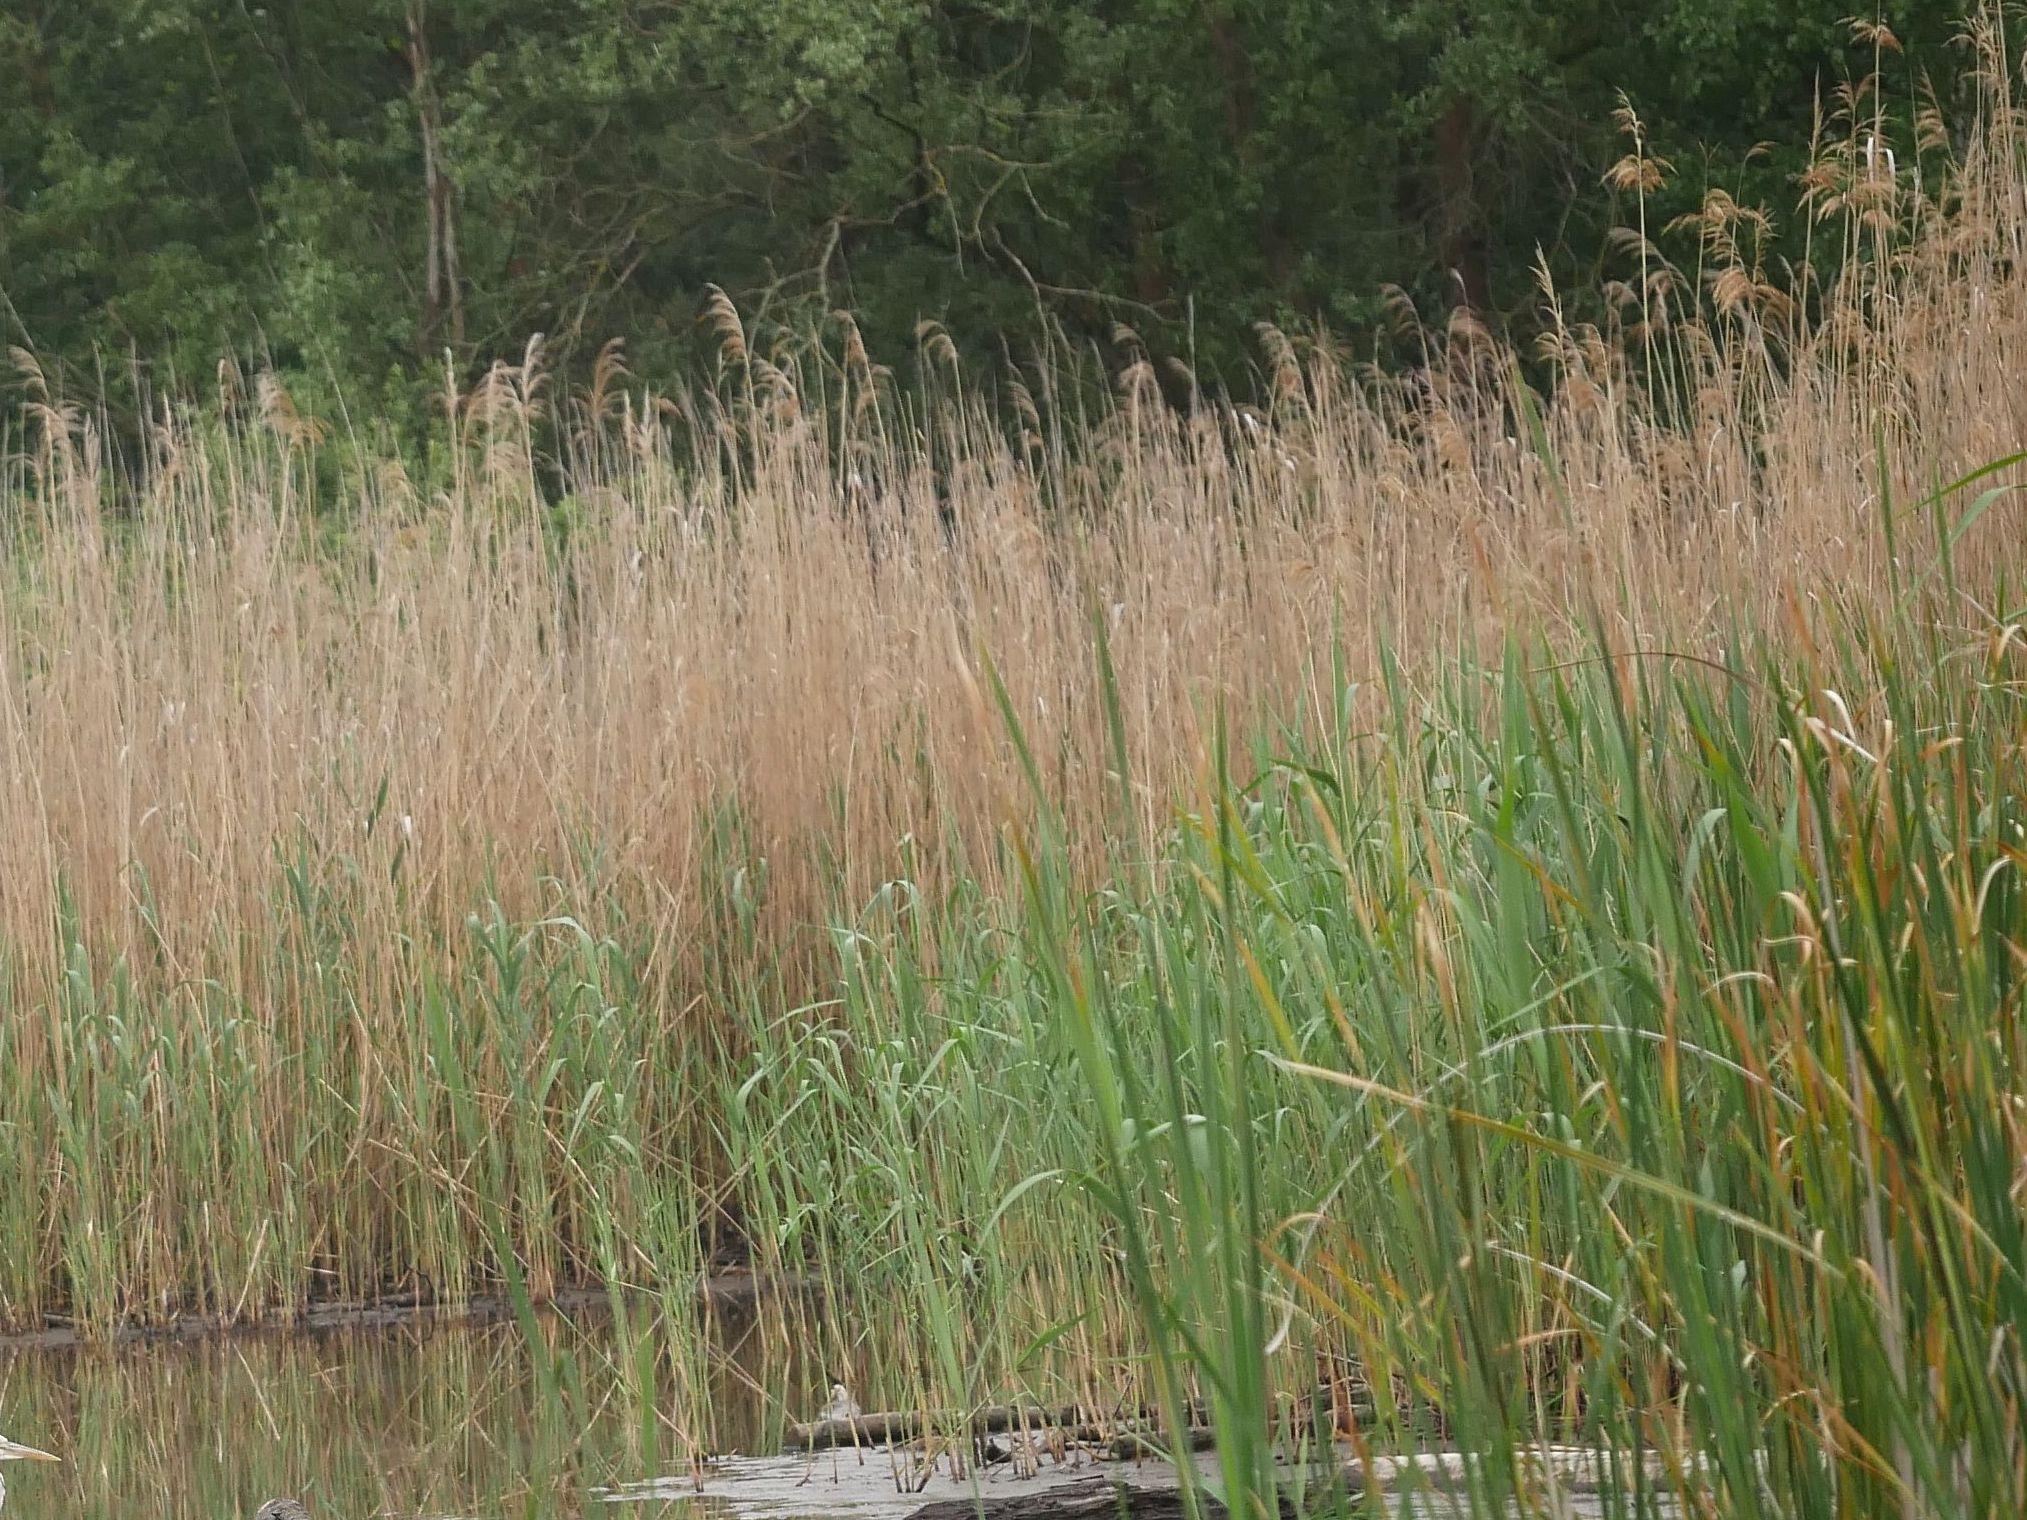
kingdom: Plantae
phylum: Tracheophyta
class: Liliopsida
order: Poales
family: Poaceae
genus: Phragmites
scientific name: Phragmites australis
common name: Common reed
